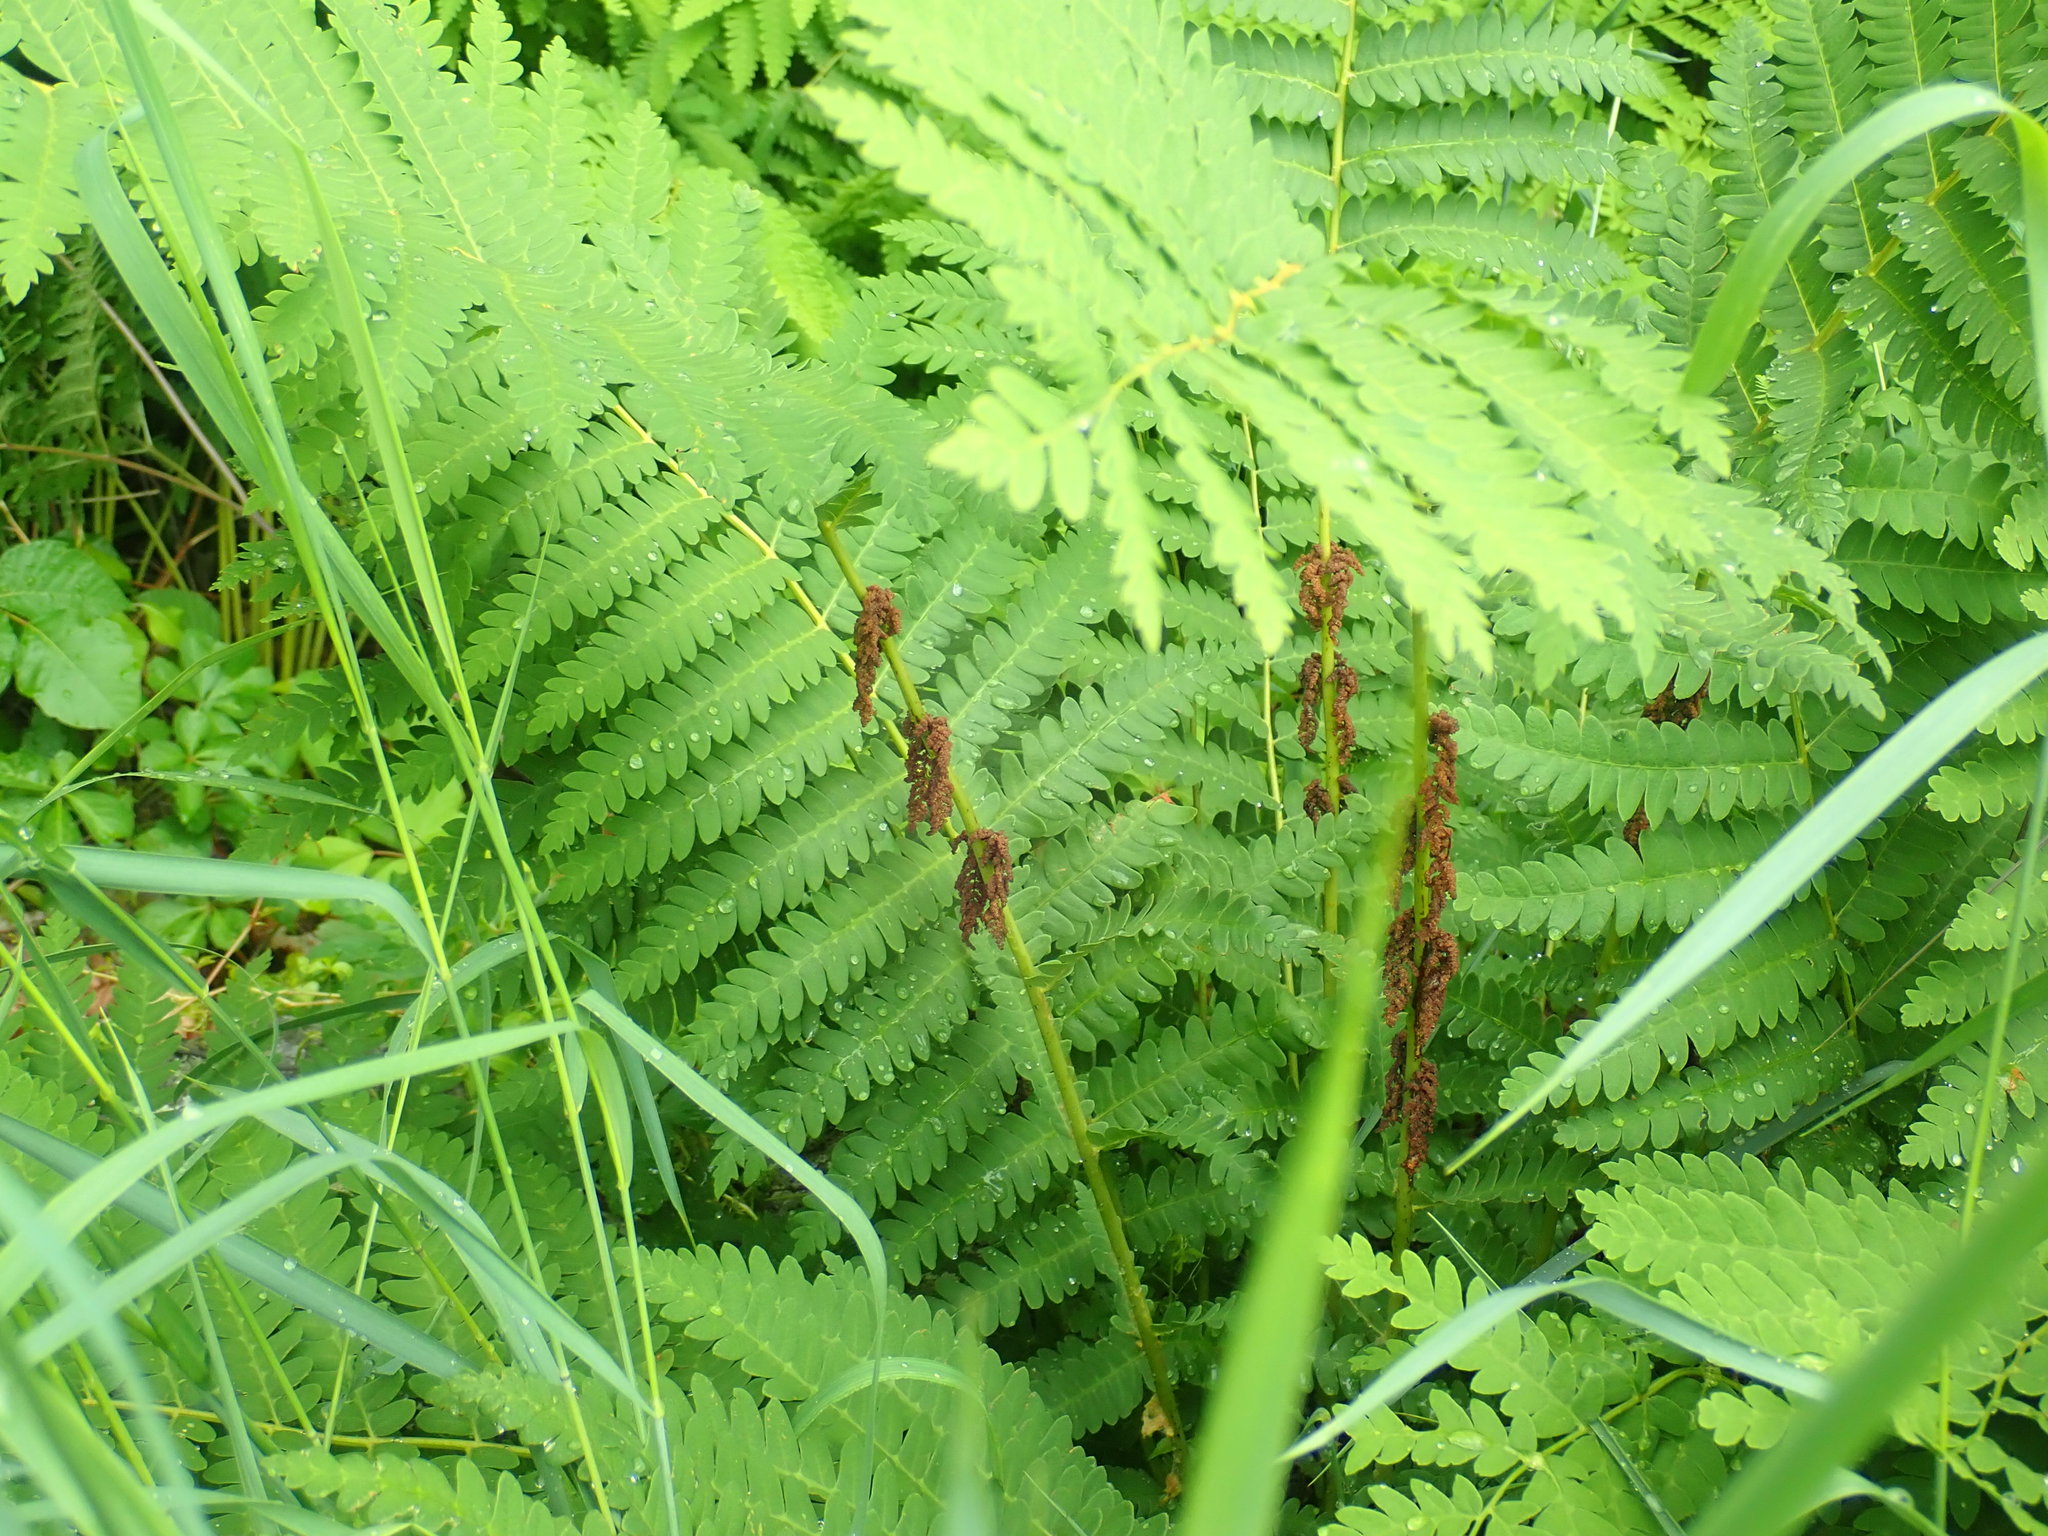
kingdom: Plantae
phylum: Tracheophyta
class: Polypodiopsida
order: Osmundales
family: Osmundaceae
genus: Claytosmunda
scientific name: Claytosmunda claytoniana
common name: Clayton's fern
